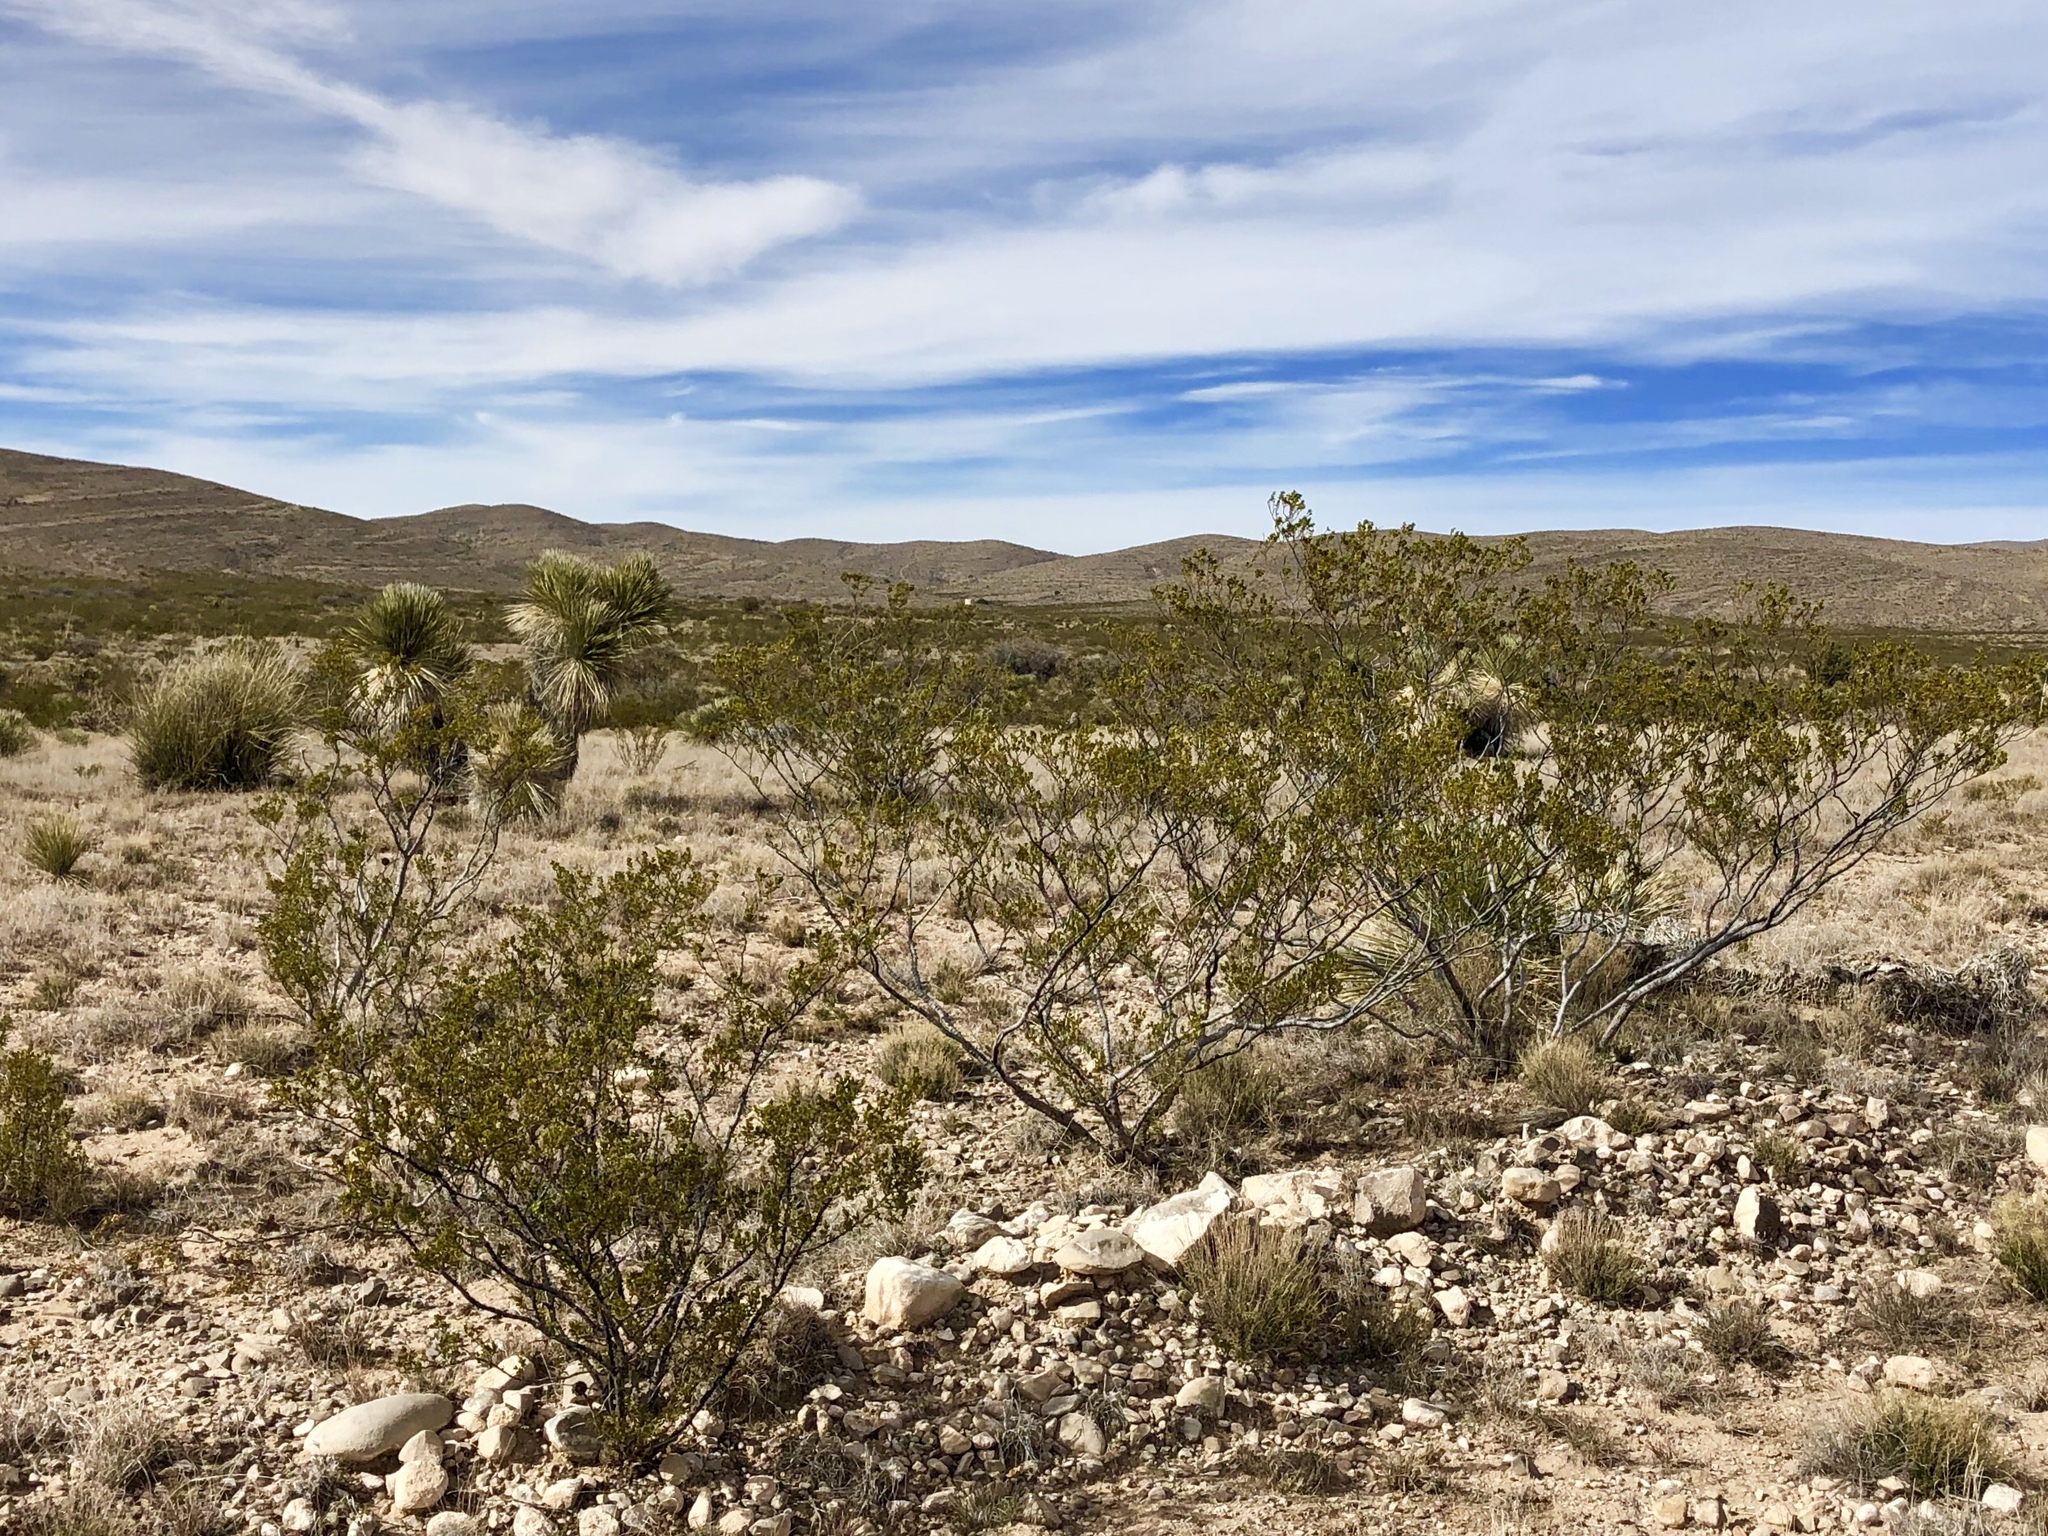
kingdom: Plantae
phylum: Tracheophyta
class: Magnoliopsida
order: Zygophyllales
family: Zygophyllaceae
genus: Larrea
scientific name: Larrea tridentata
